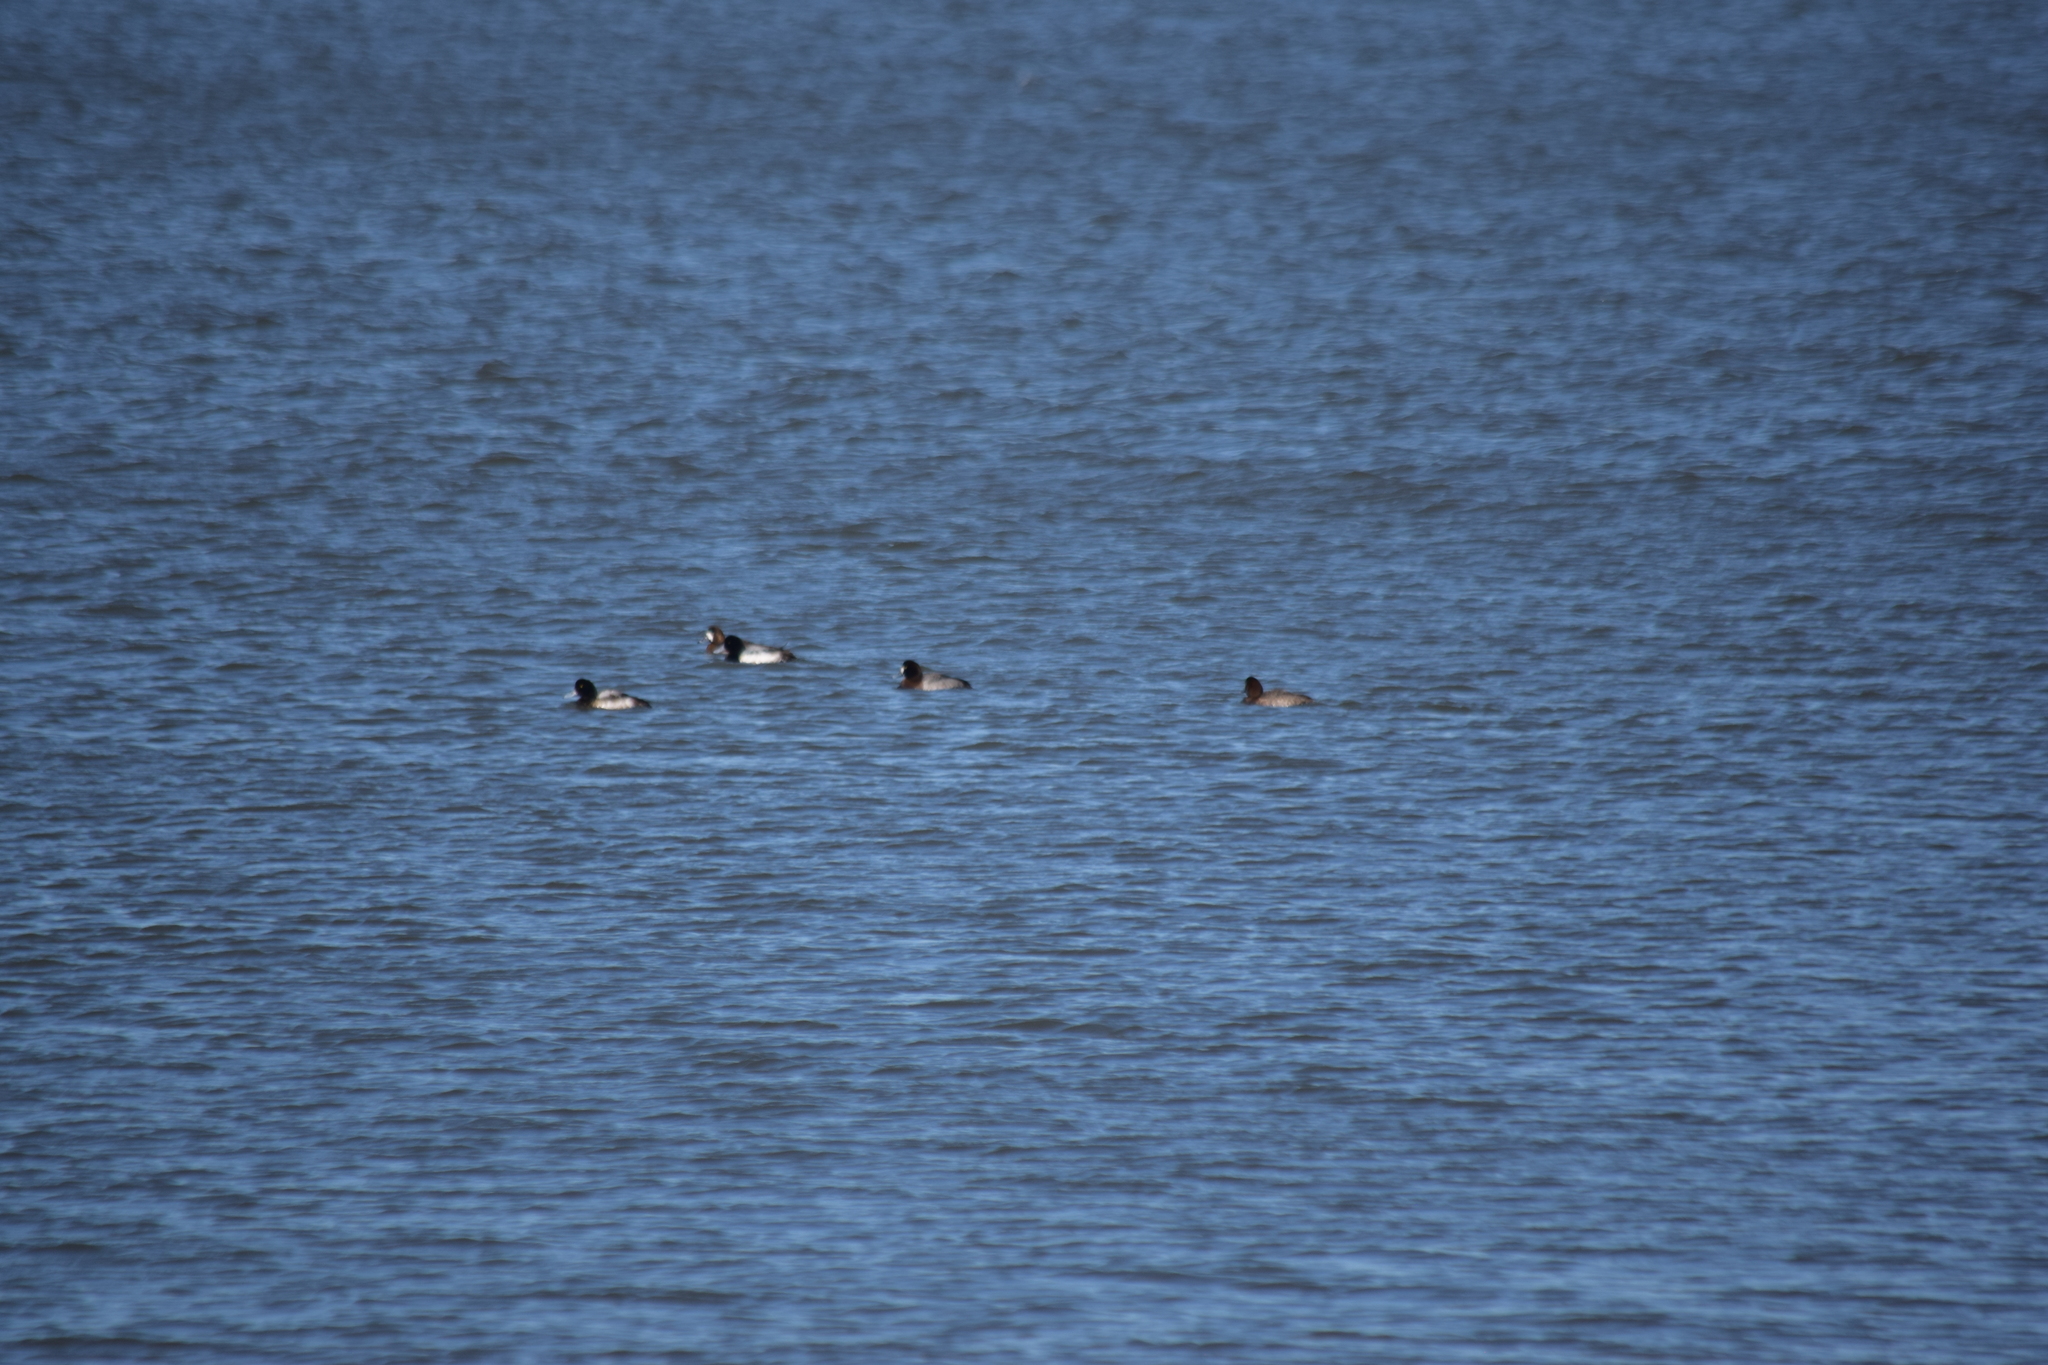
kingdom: Animalia
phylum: Chordata
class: Aves
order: Anseriformes
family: Anatidae
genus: Aythya
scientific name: Aythya marila
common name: Greater scaup
